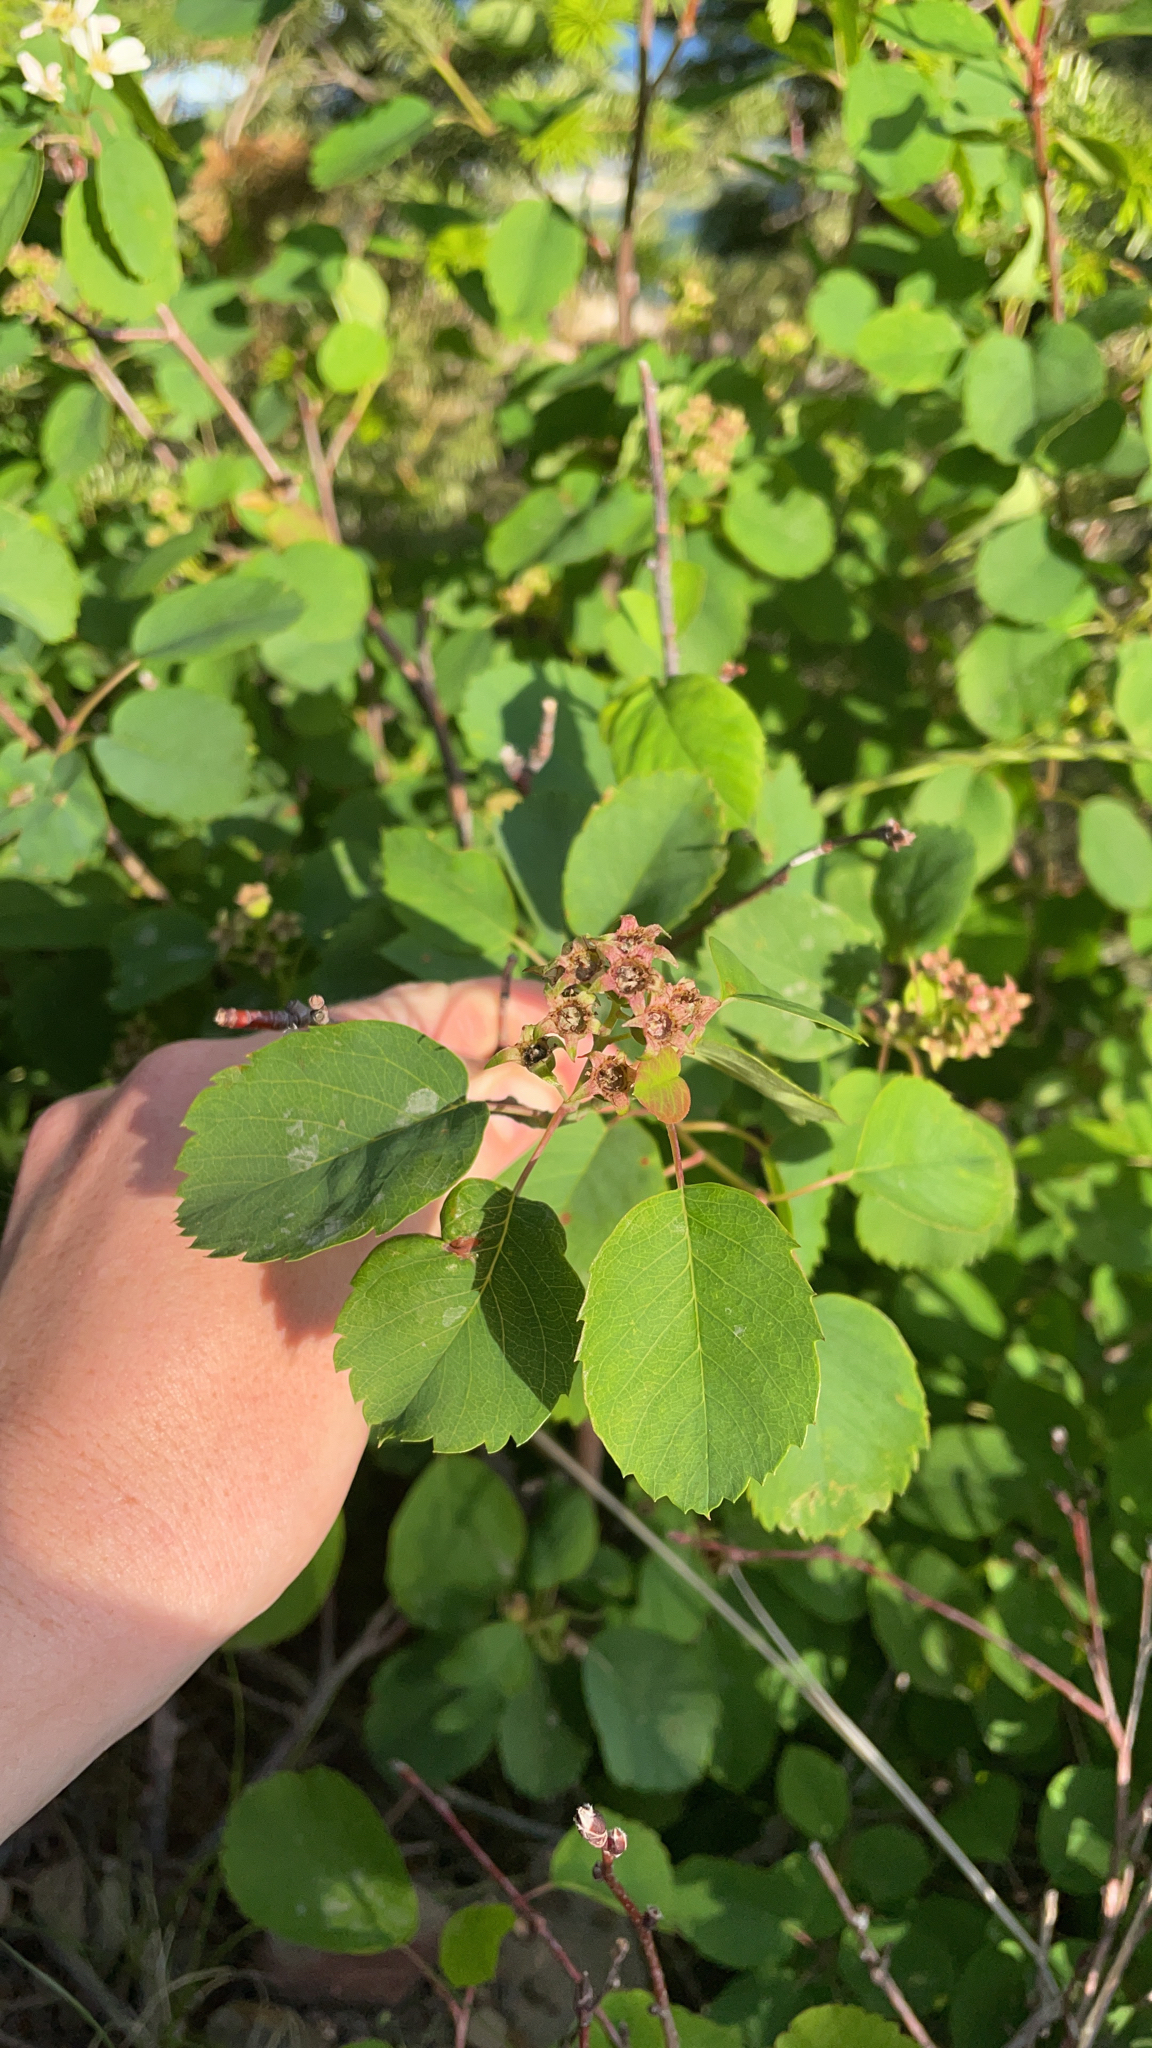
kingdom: Plantae
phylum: Tracheophyta
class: Magnoliopsida
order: Rosales
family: Rosaceae
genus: Amelanchier
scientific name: Amelanchier alnifolia
